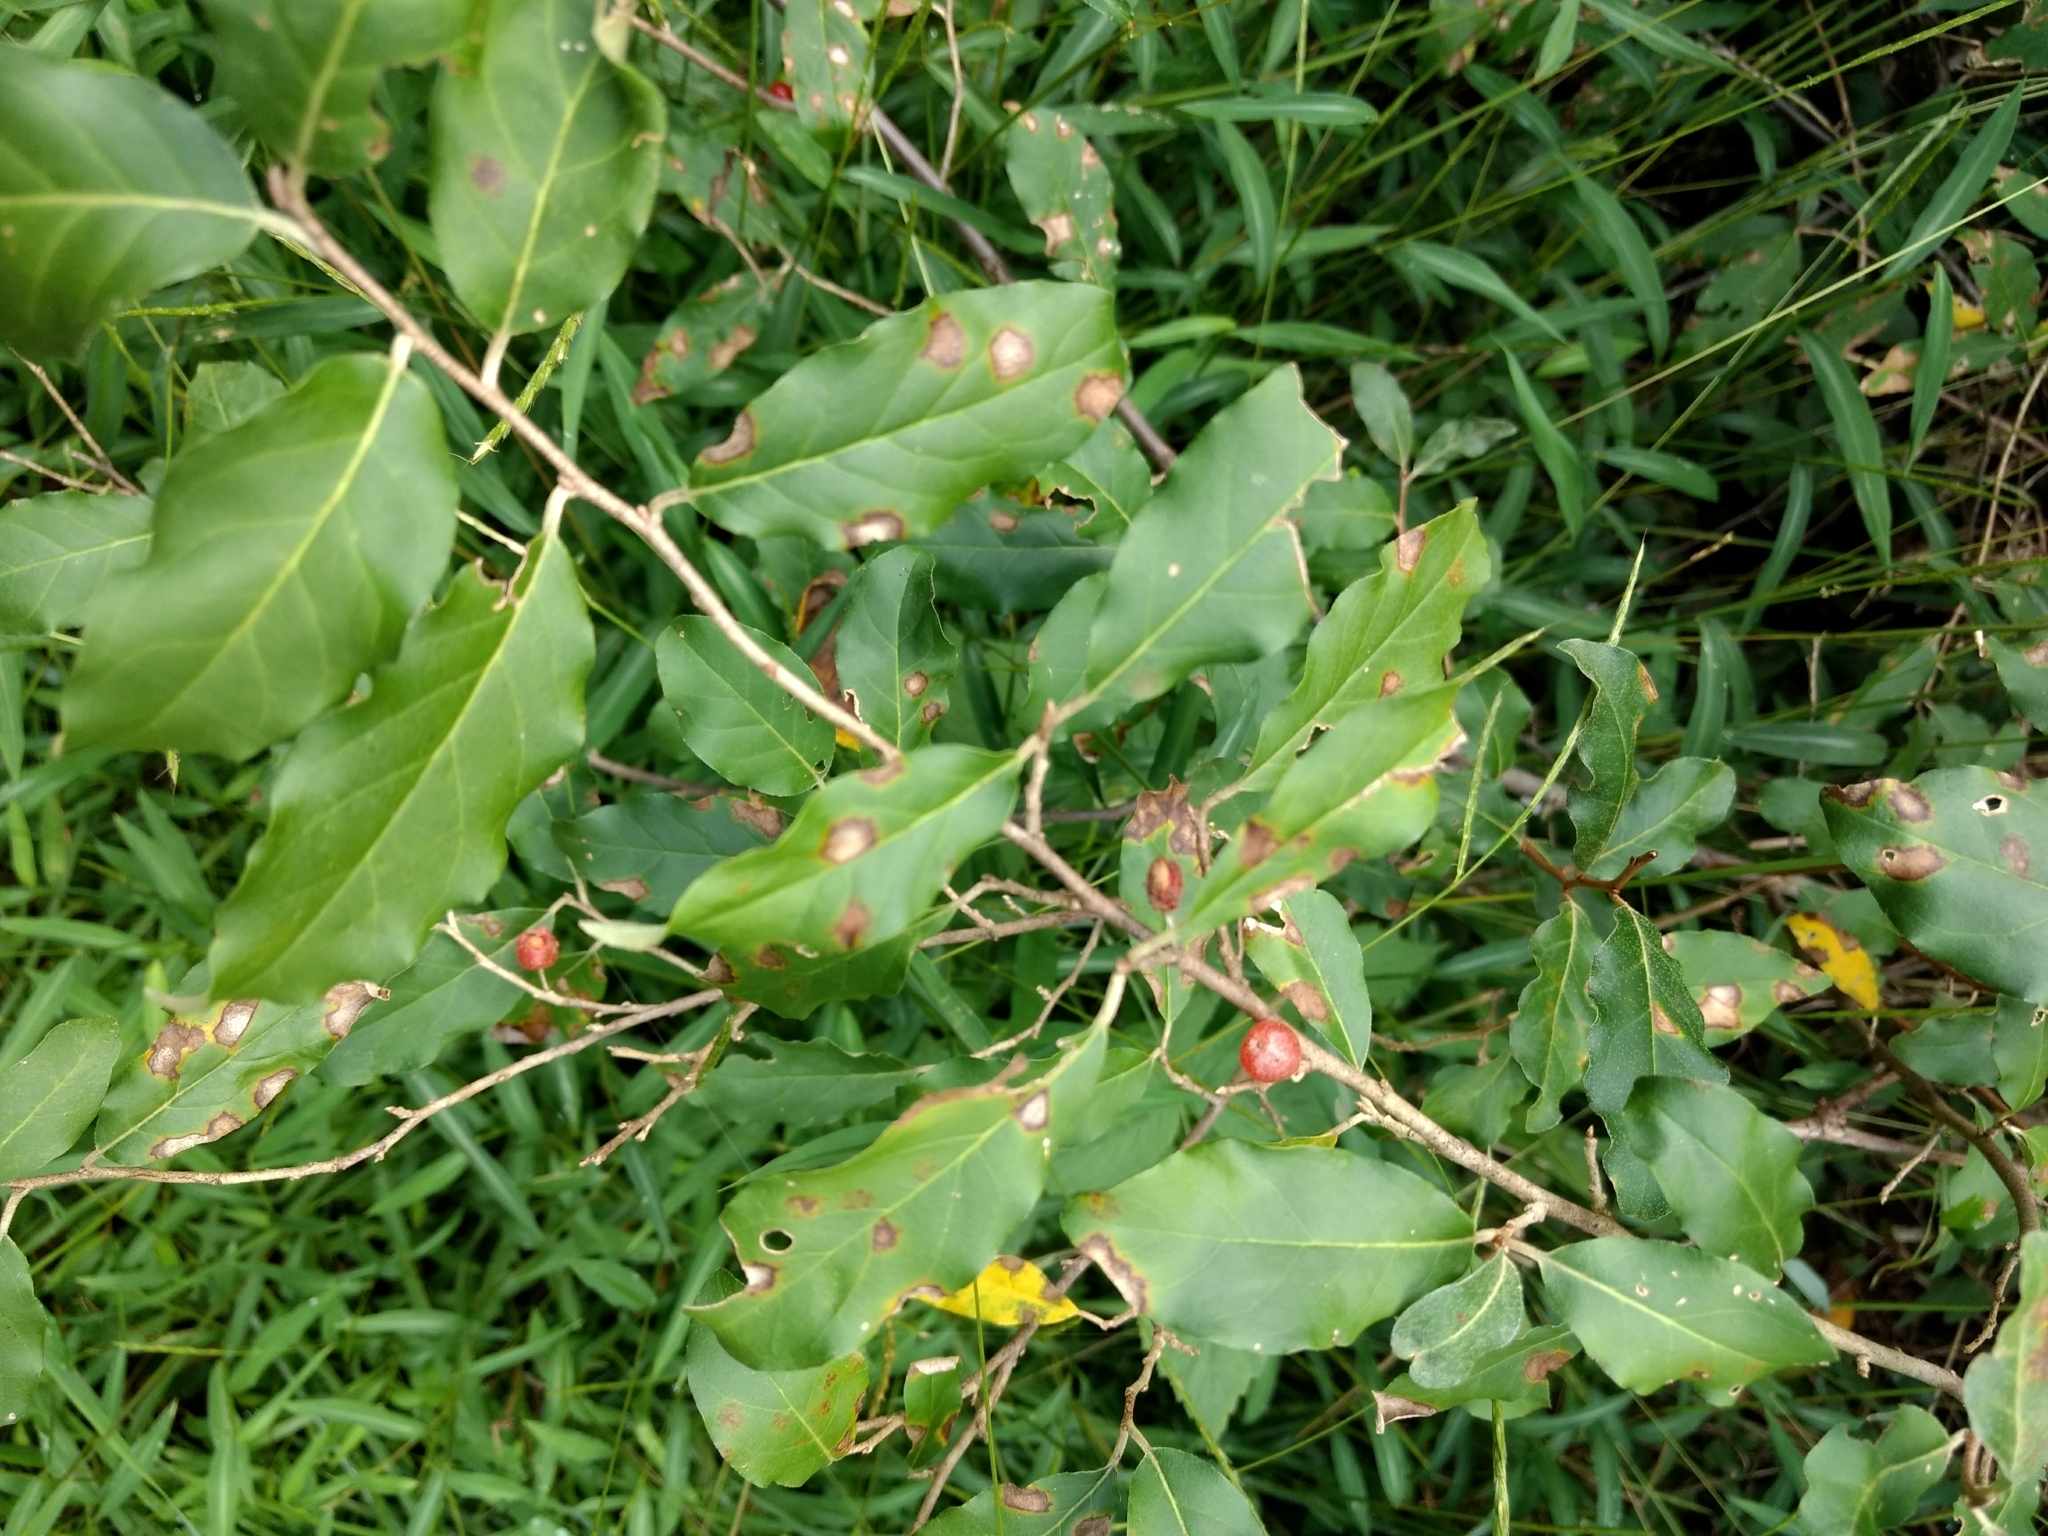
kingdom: Plantae
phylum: Tracheophyta
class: Magnoliopsida
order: Rosales
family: Elaeagnaceae
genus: Elaeagnus
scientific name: Elaeagnus umbellata
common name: Autumn olive
